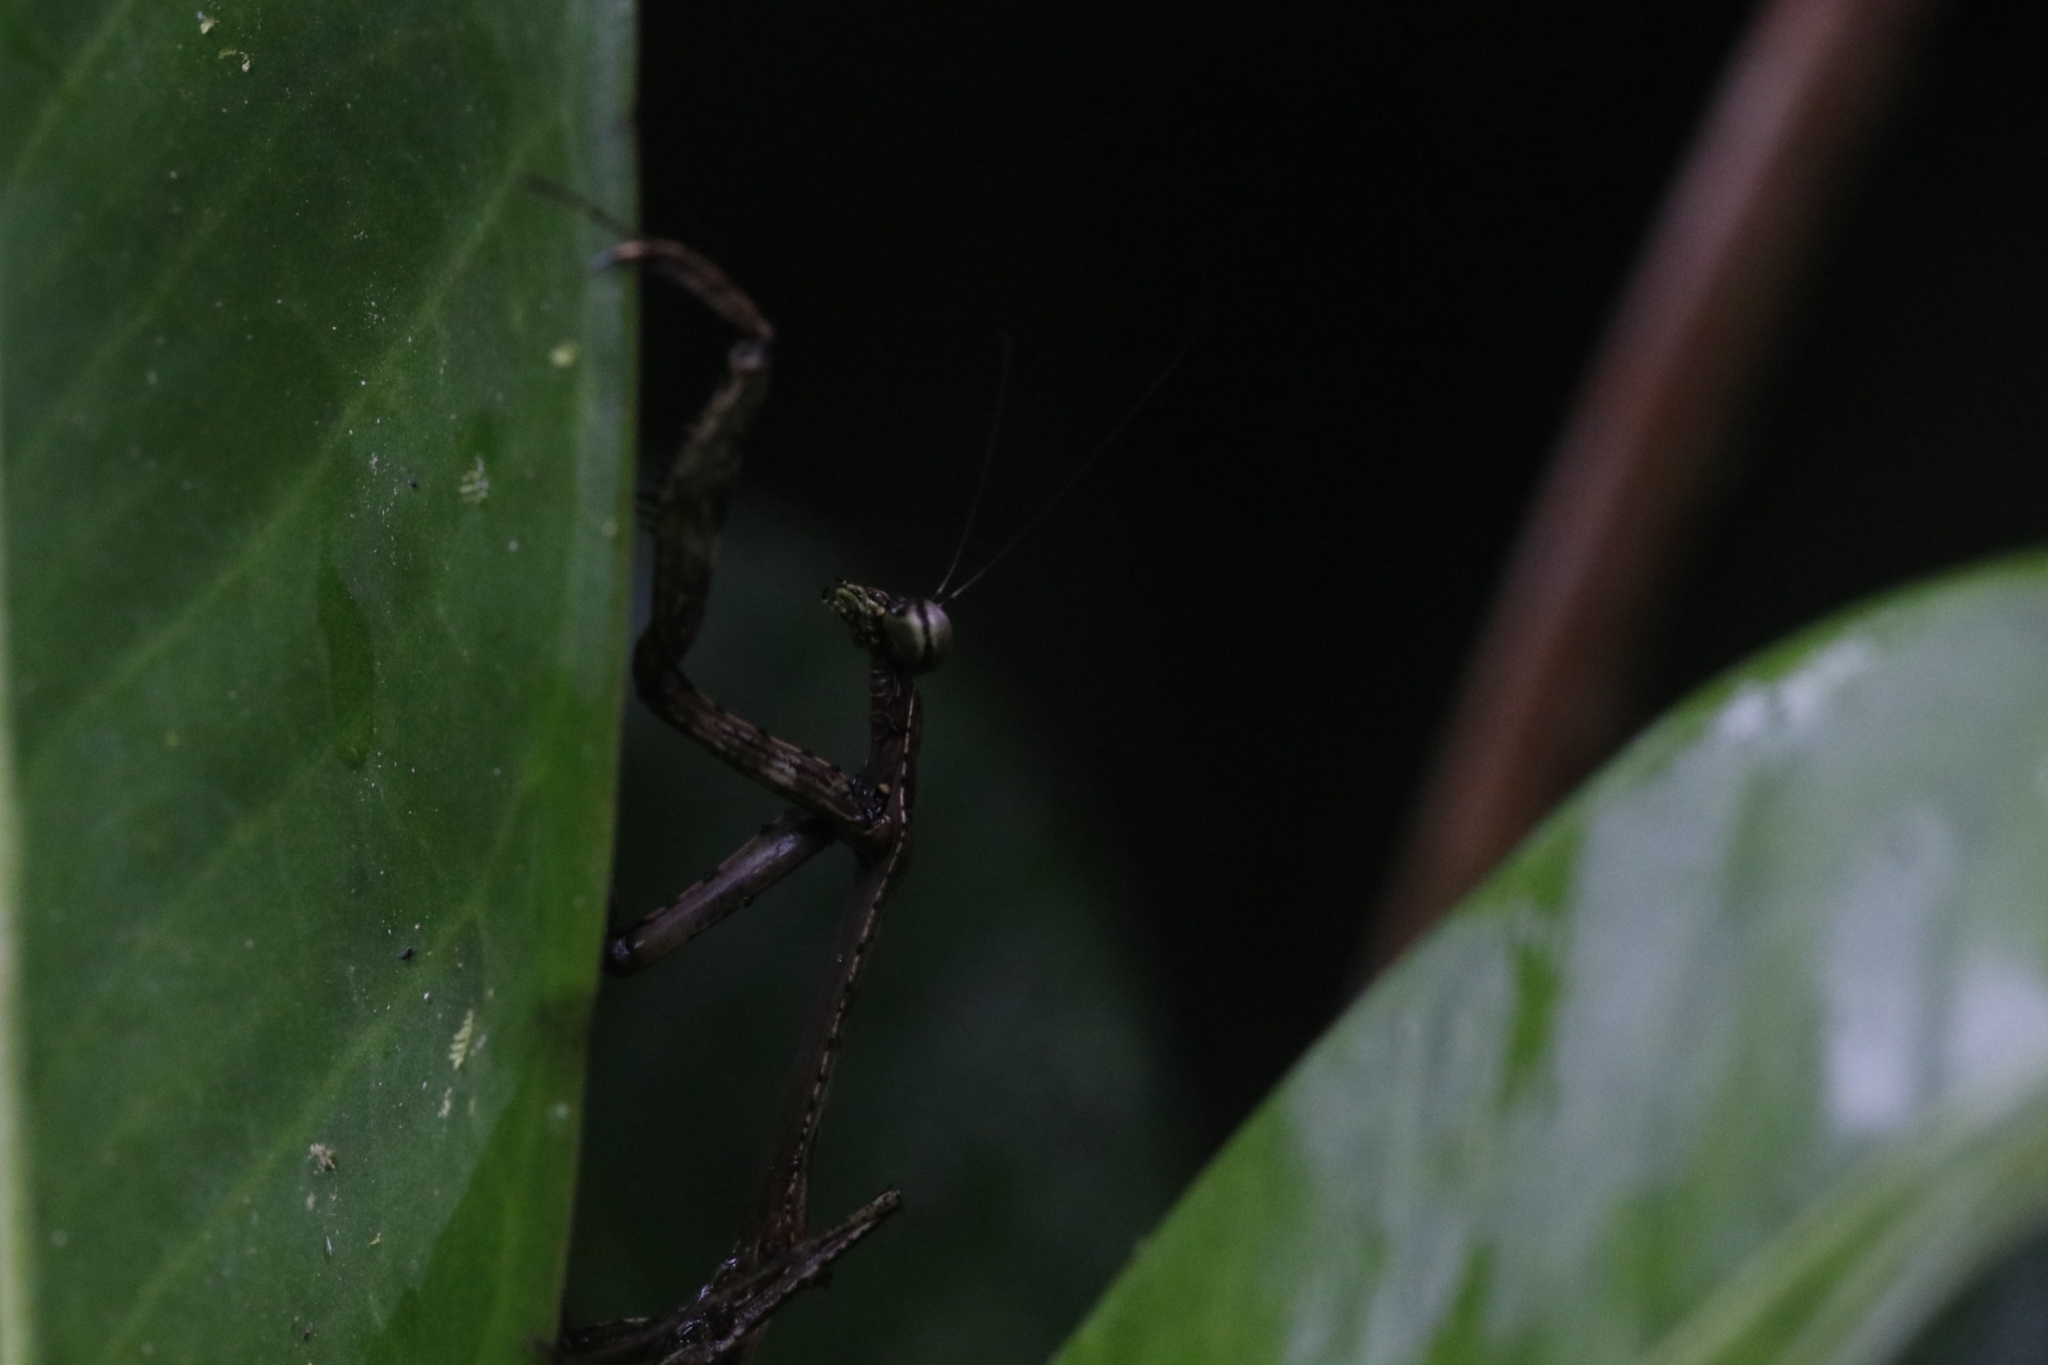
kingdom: Animalia
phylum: Arthropoda
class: Insecta
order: Mantodea
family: Mantidae
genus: Tauromantis
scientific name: Tauromantis championi
